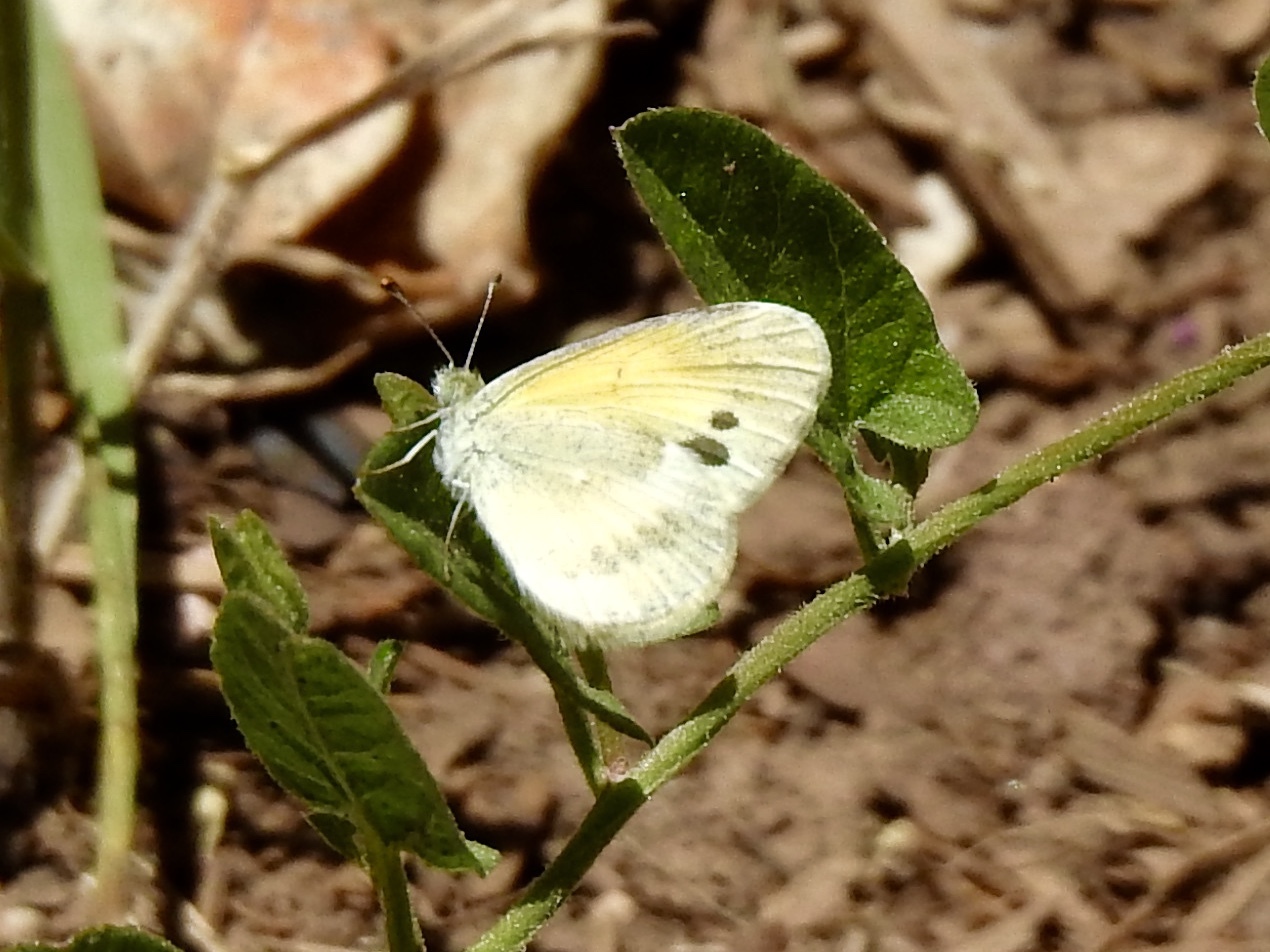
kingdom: Animalia
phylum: Arthropoda
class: Insecta
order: Lepidoptera
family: Pieridae
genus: Nathalis
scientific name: Nathalis iole
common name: Dainty sulphur
